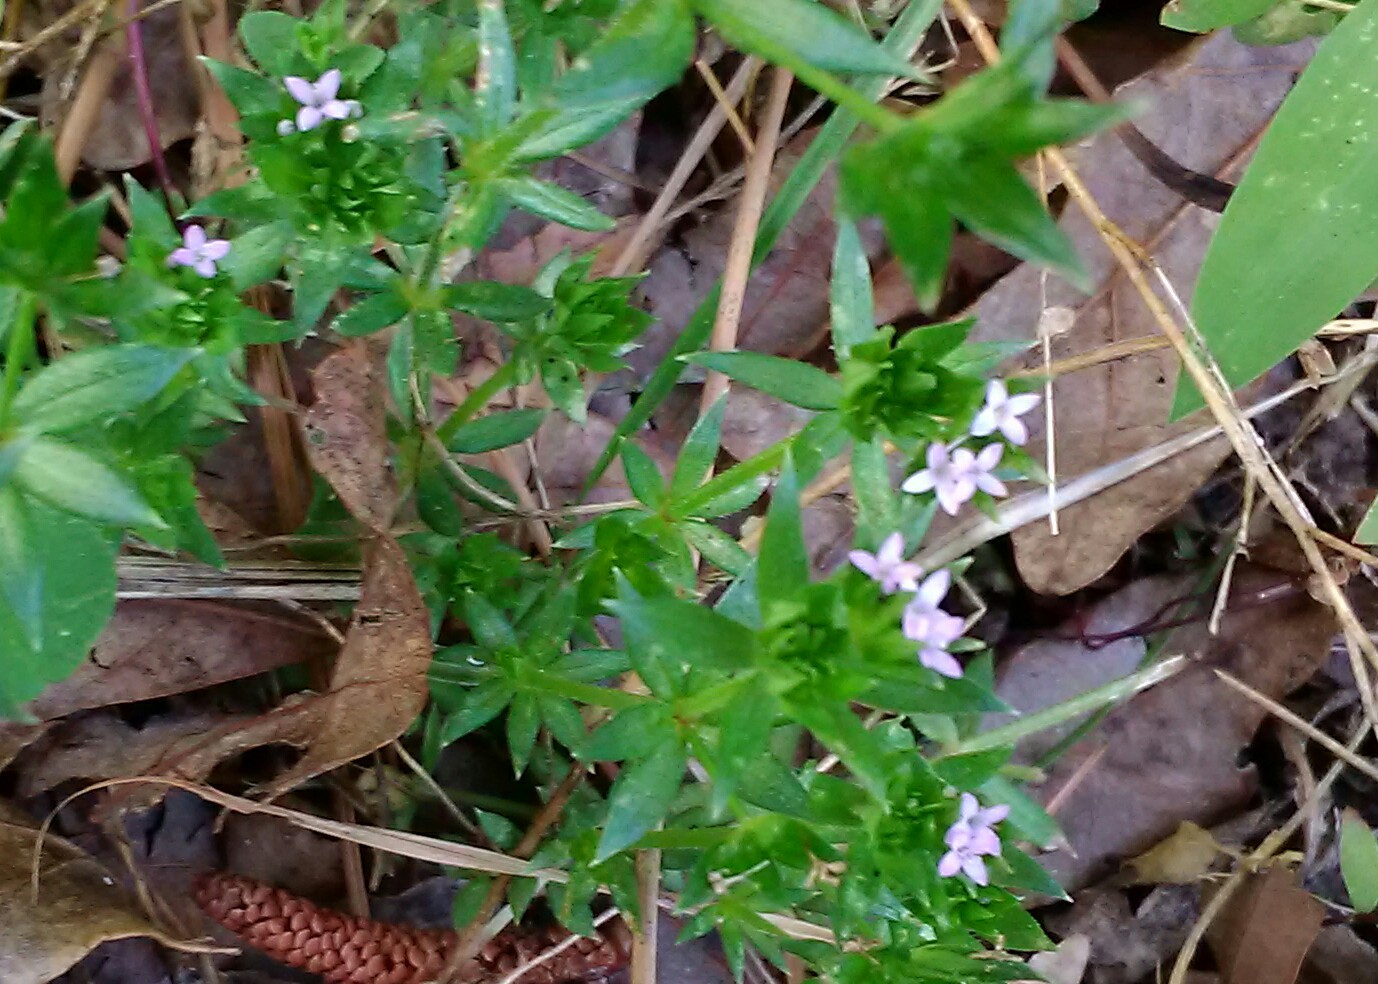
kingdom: Plantae
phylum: Tracheophyta
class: Magnoliopsida
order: Gentianales
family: Rubiaceae
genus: Sherardia
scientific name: Sherardia arvensis
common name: Field madder
